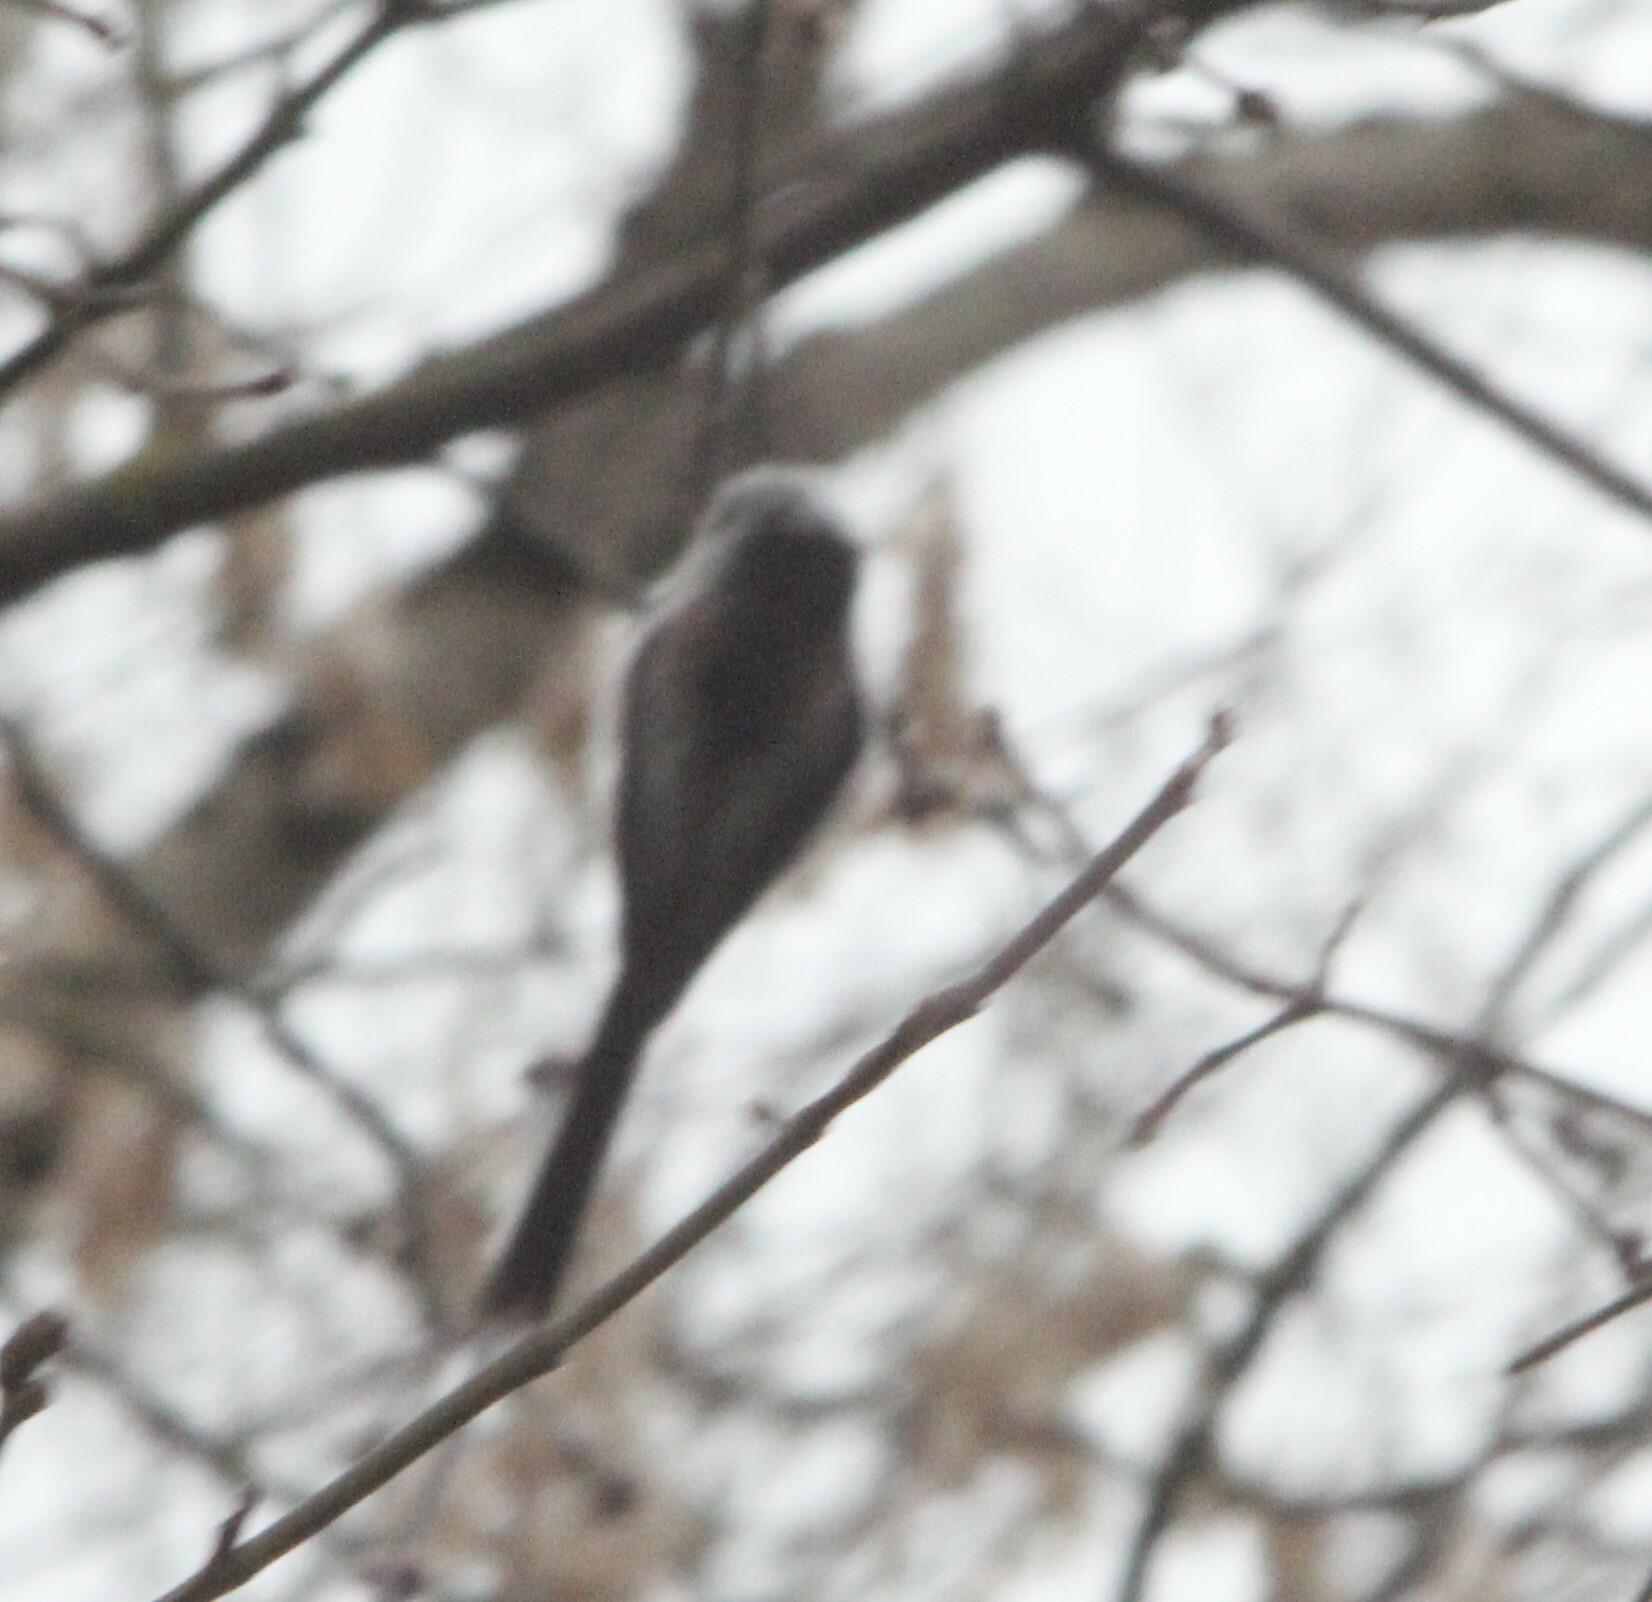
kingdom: Animalia
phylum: Chordata
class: Aves
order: Passeriformes
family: Aegithalidae
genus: Aegithalos
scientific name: Aegithalos caudatus
